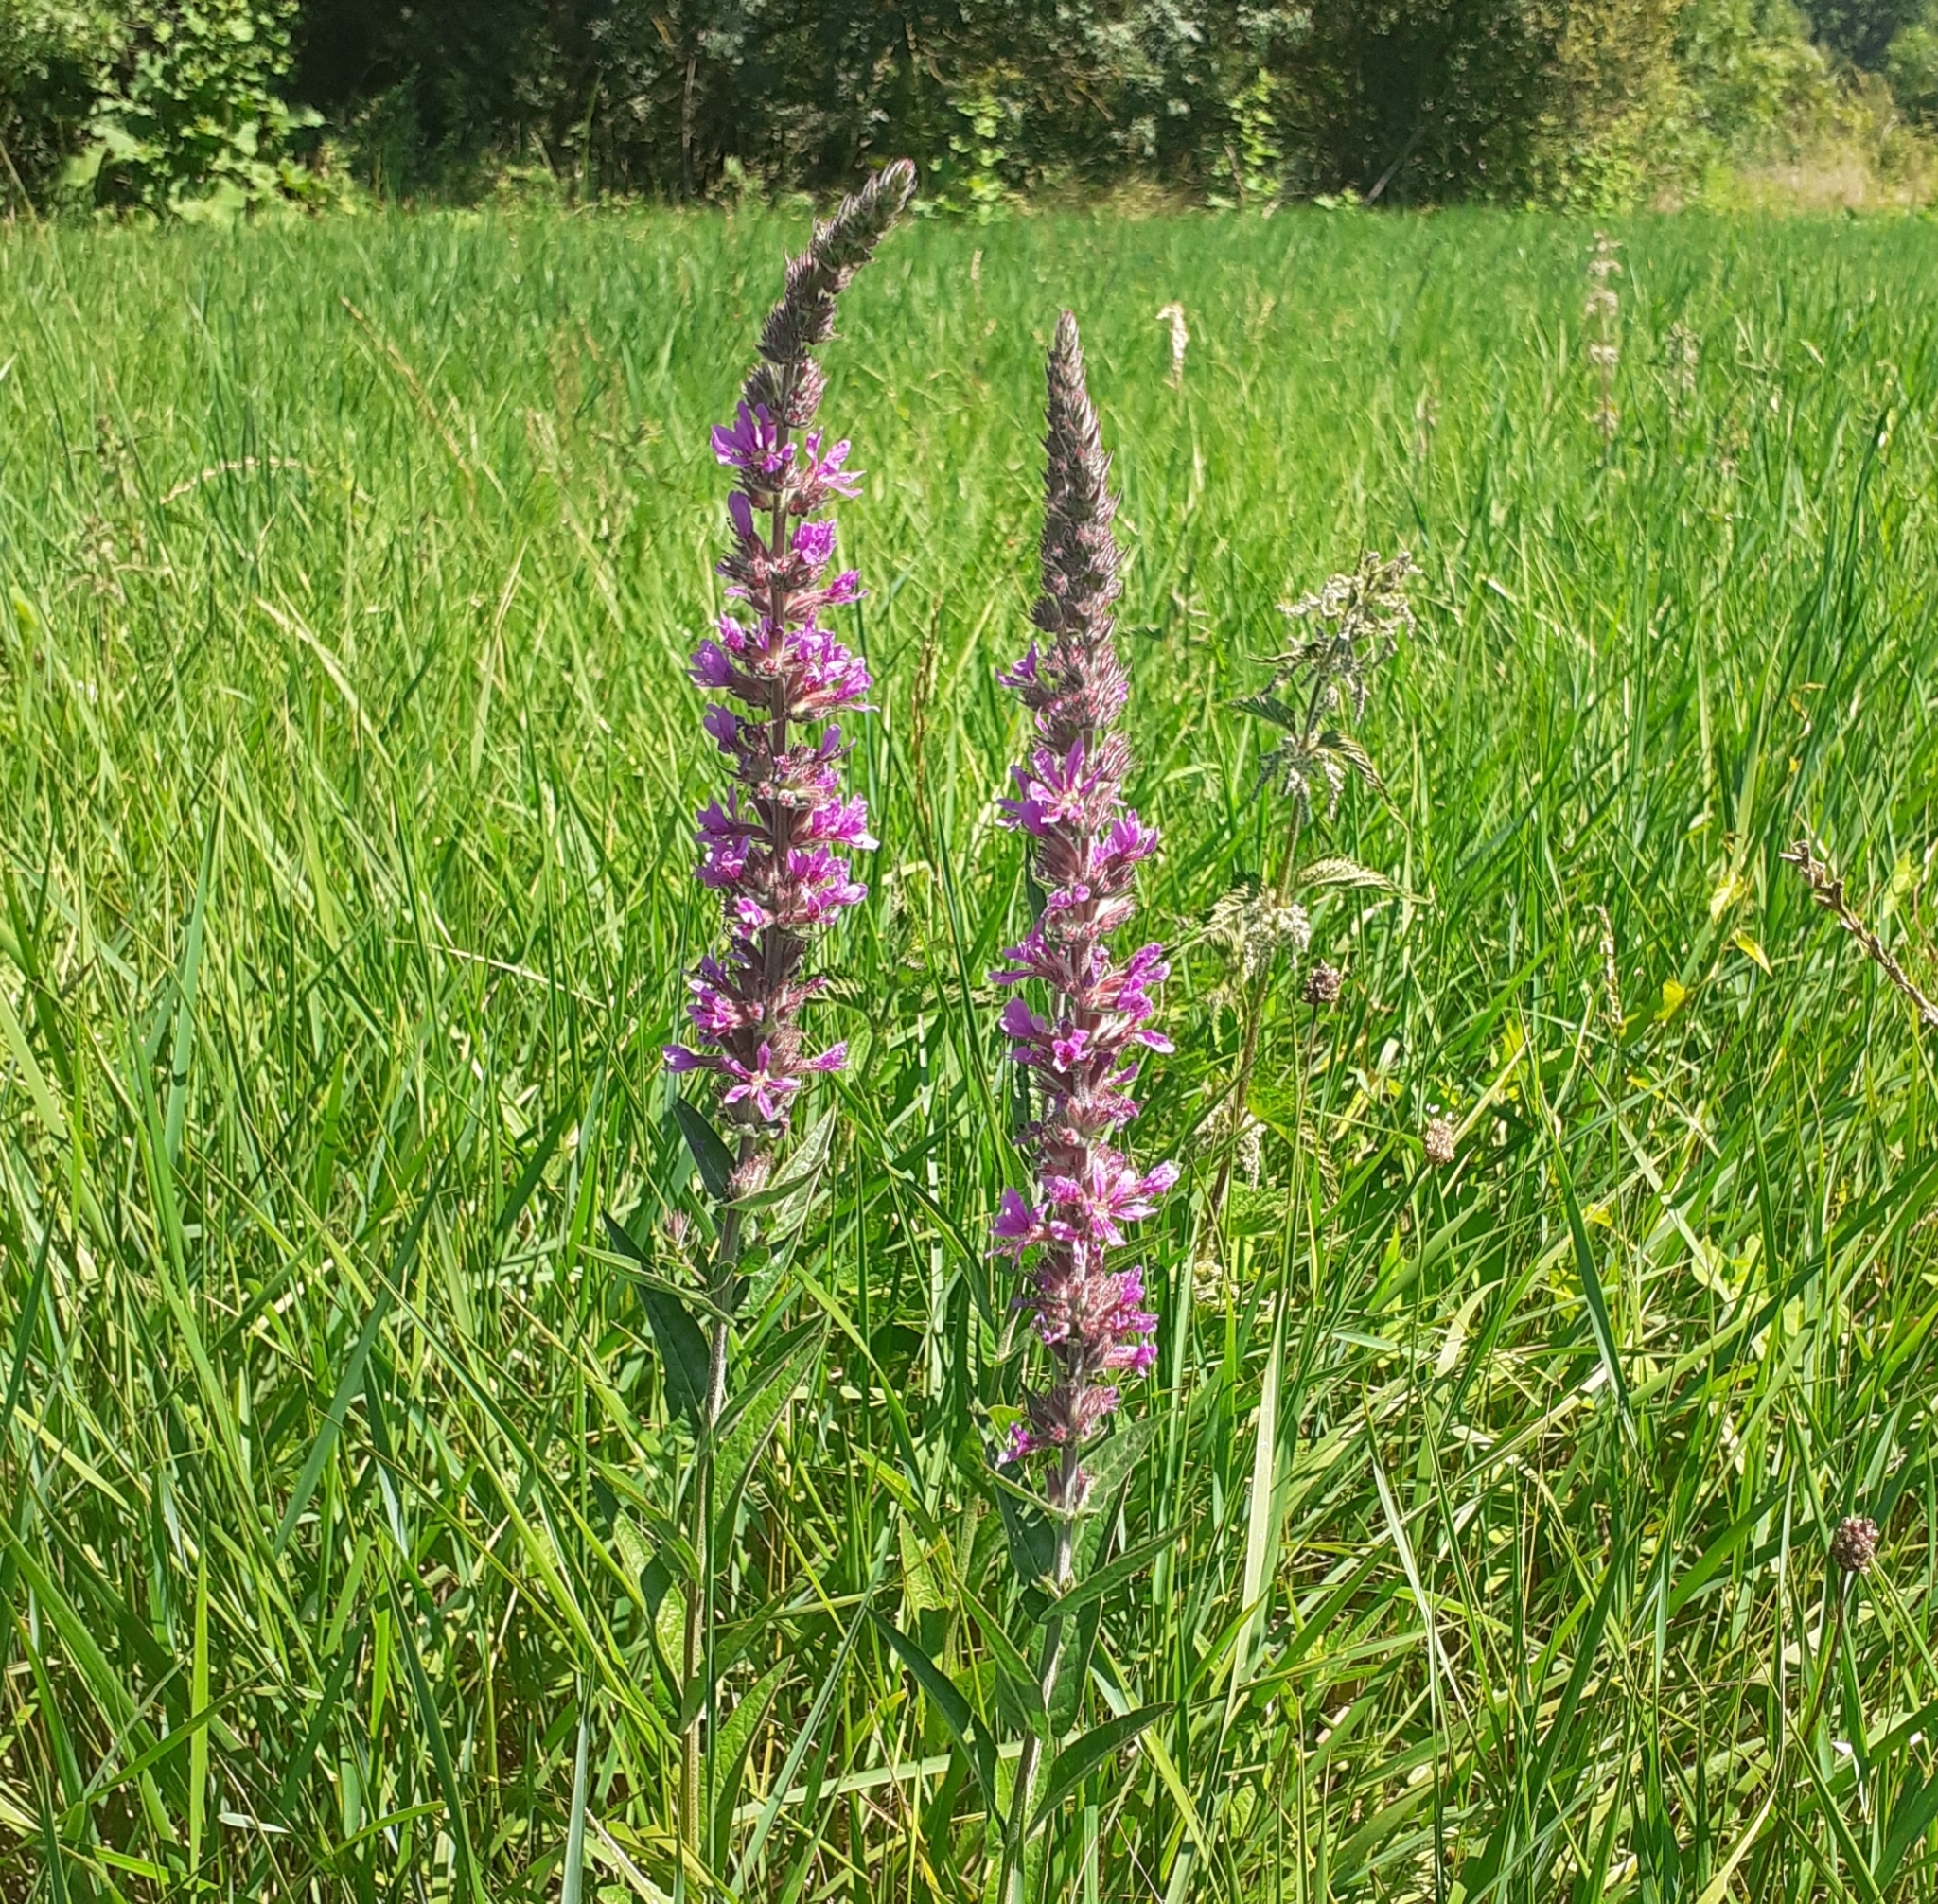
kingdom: Plantae
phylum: Tracheophyta
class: Magnoliopsida
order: Myrtales
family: Lythraceae
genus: Lythrum
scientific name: Lythrum salicaria
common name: Purple loosestrife
